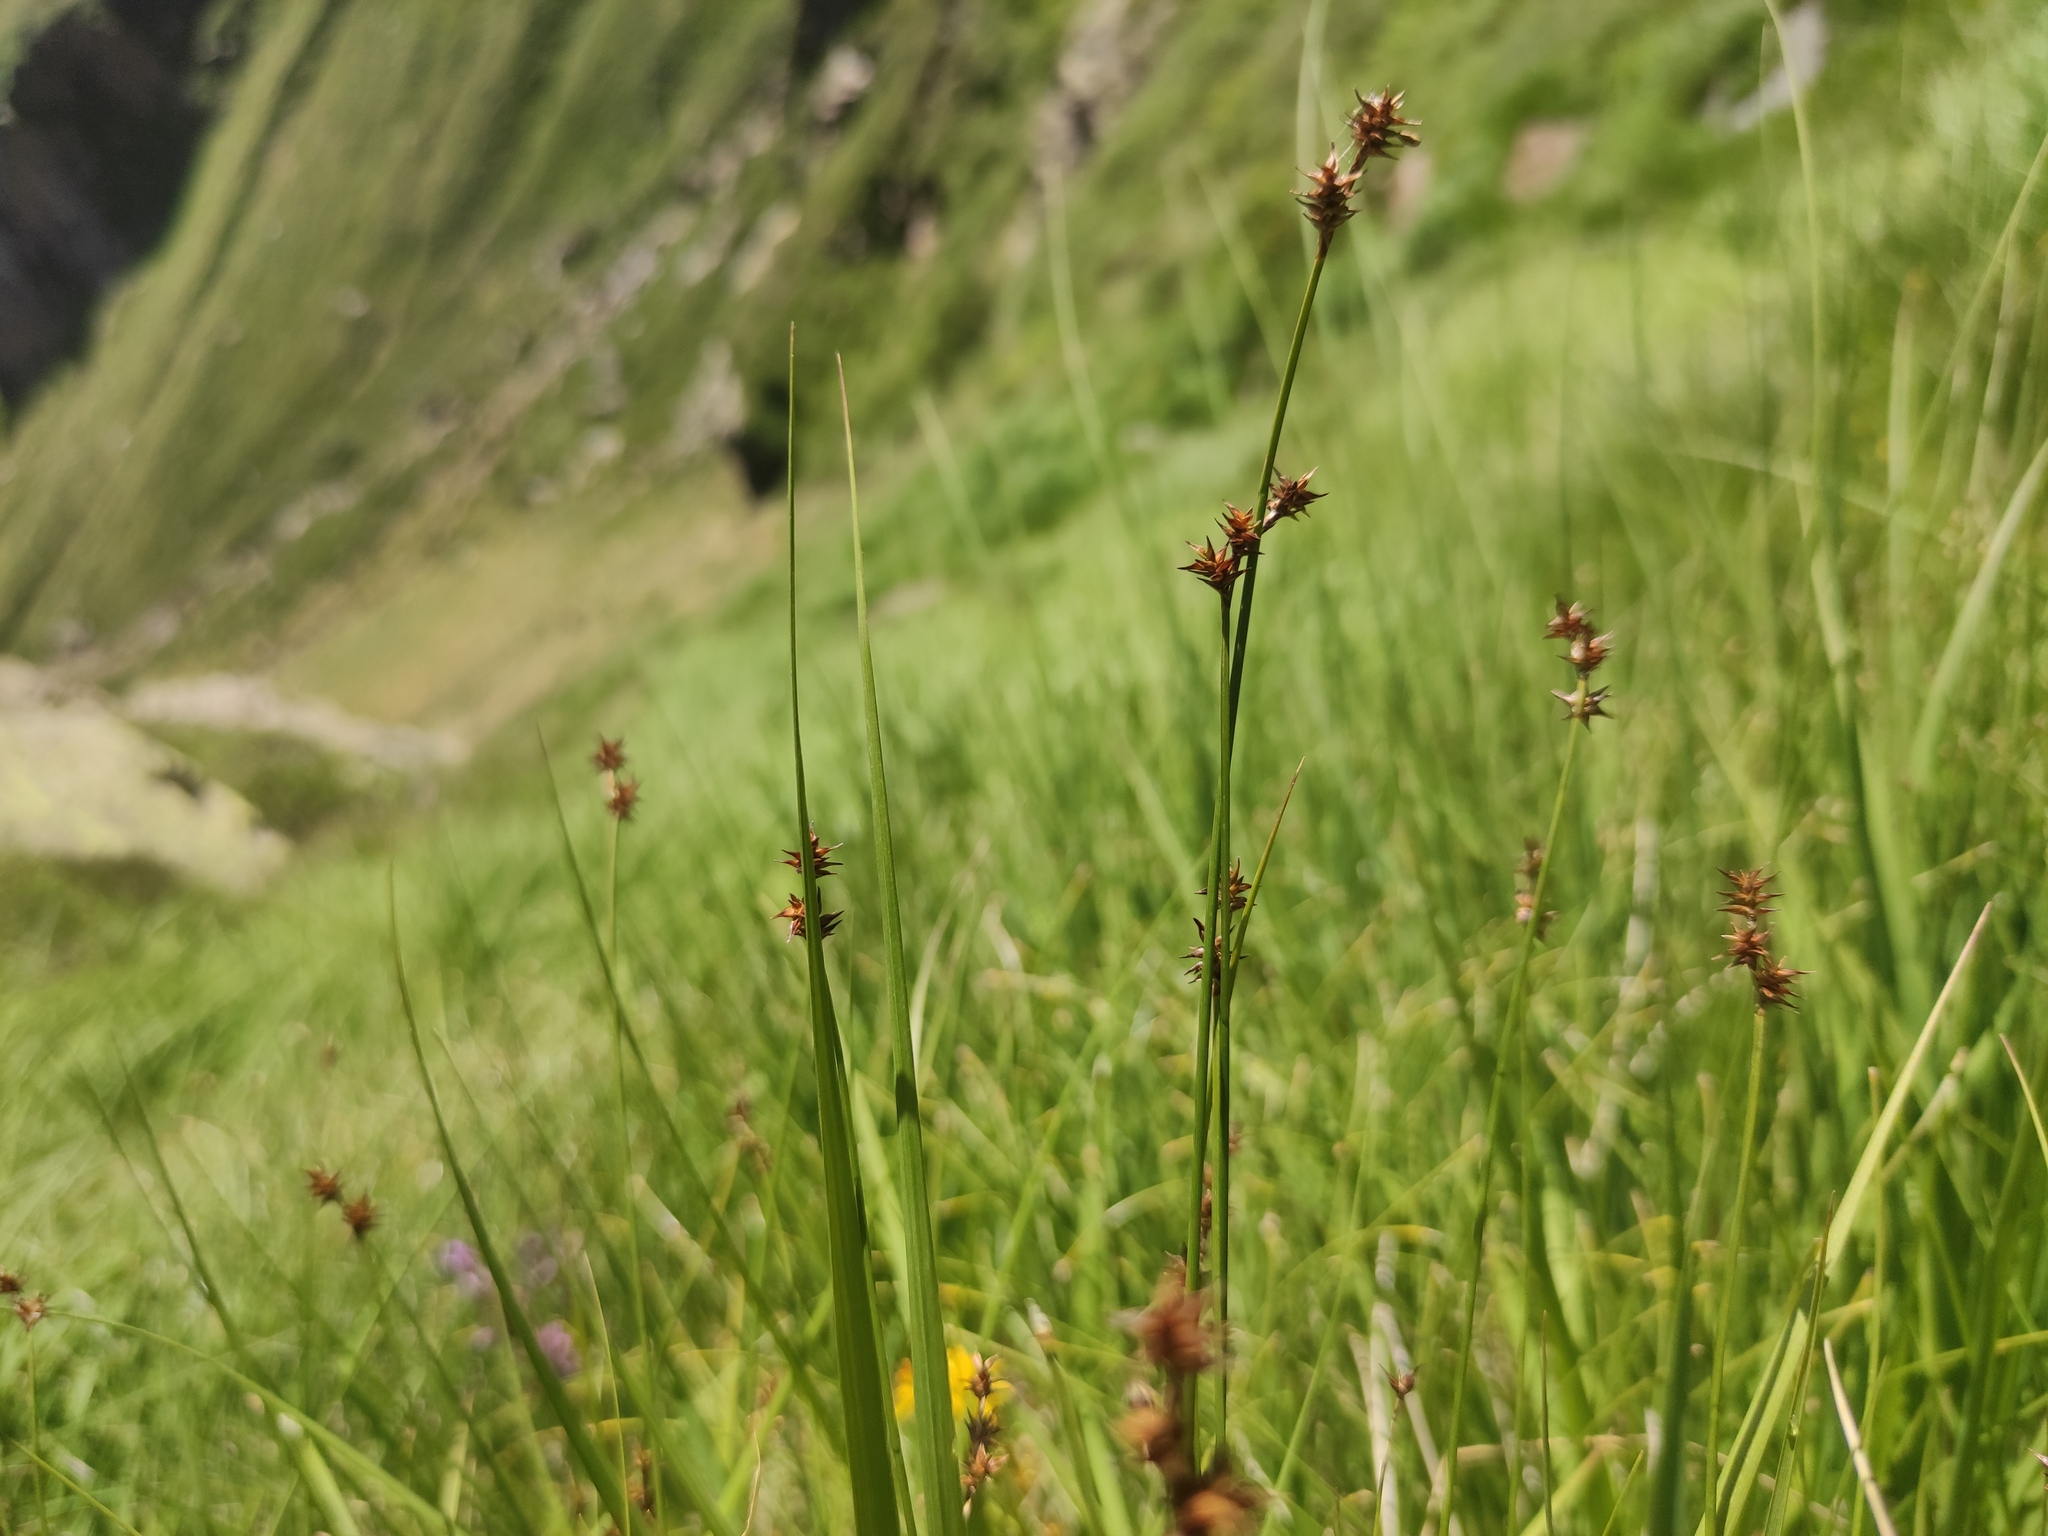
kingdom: Plantae
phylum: Tracheophyta
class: Liliopsida
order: Poales
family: Cyperaceae
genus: Carex
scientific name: Carex echinata
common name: Star sedge
